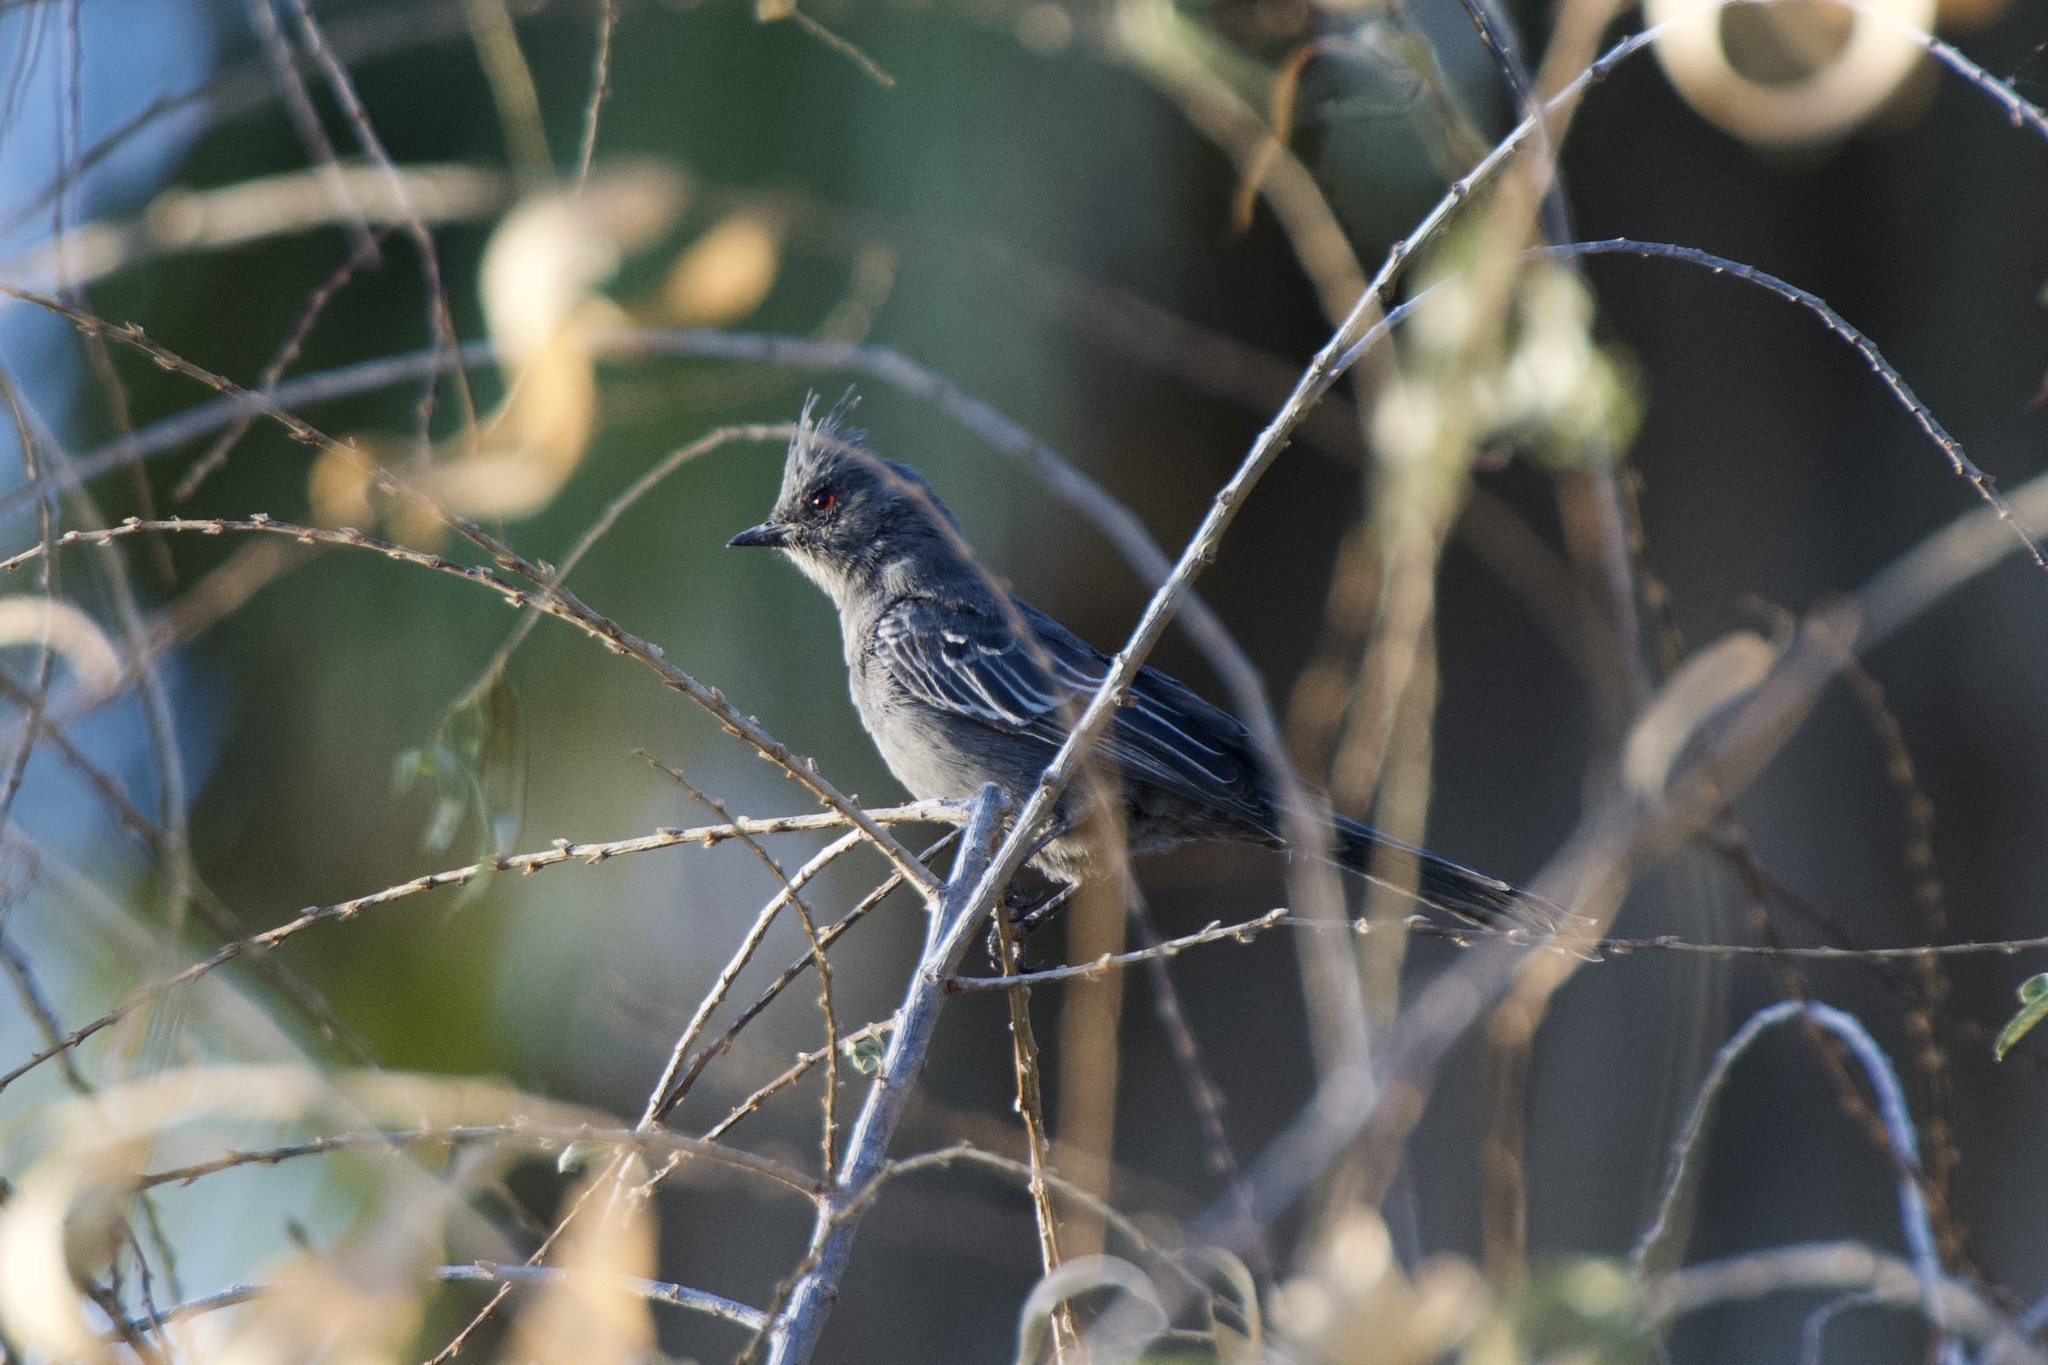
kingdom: Animalia
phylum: Chordata
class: Aves
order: Passeriformes
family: Ptilogonatidae
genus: Phainopepla
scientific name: Phainopepla nitens
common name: Phainopepla
